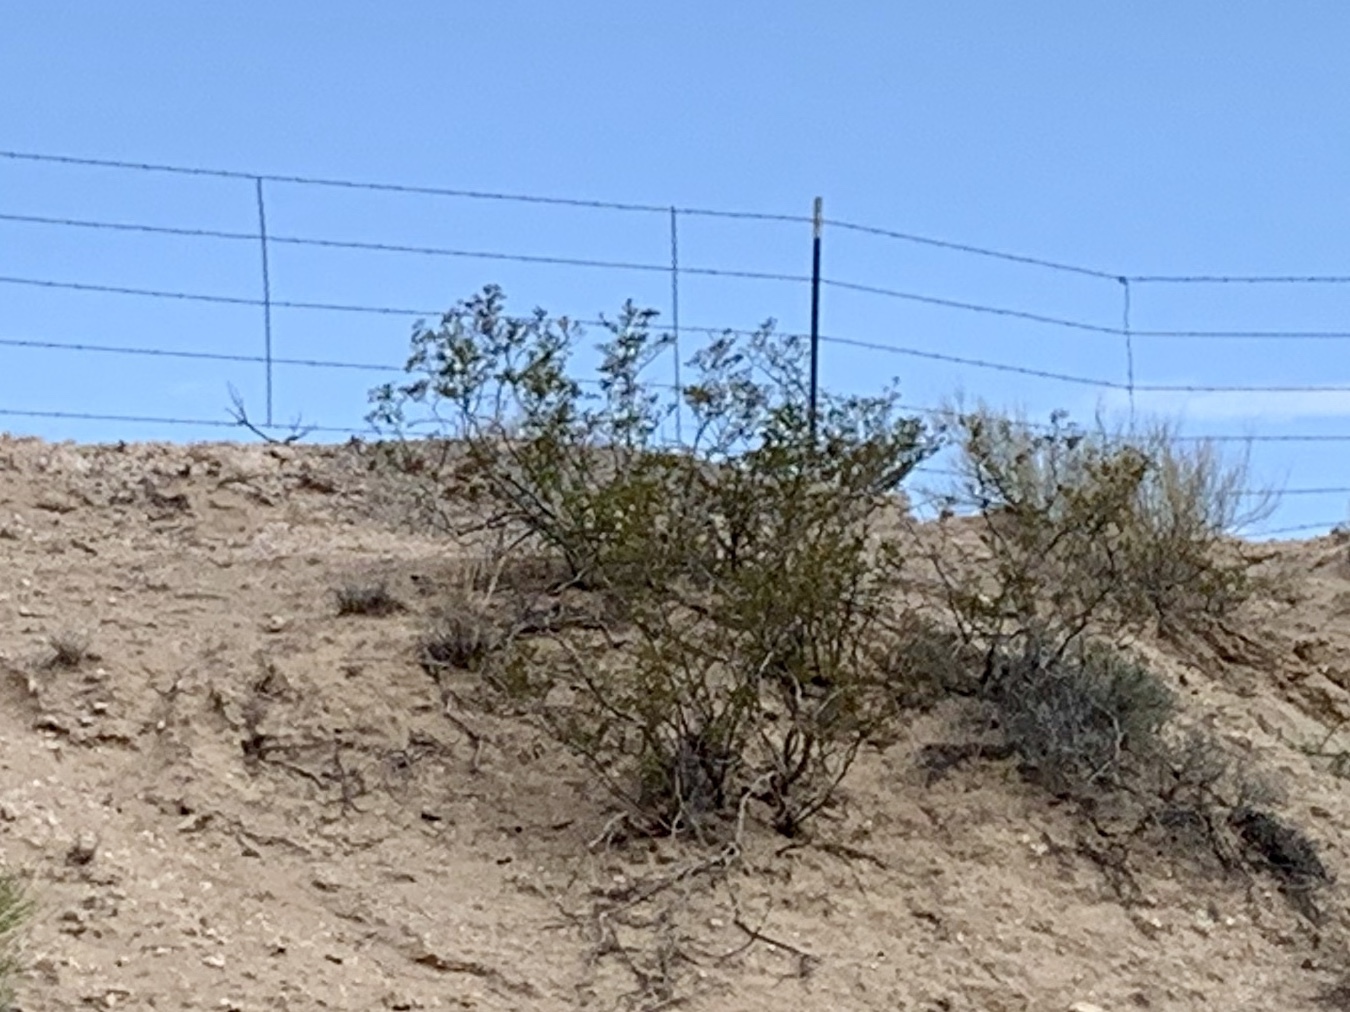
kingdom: Plantae
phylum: Tracheophyta
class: Magnoliopsida
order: Zygophyllales
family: Zygophyllaceae
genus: Larrea
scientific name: Larrea tridentata
